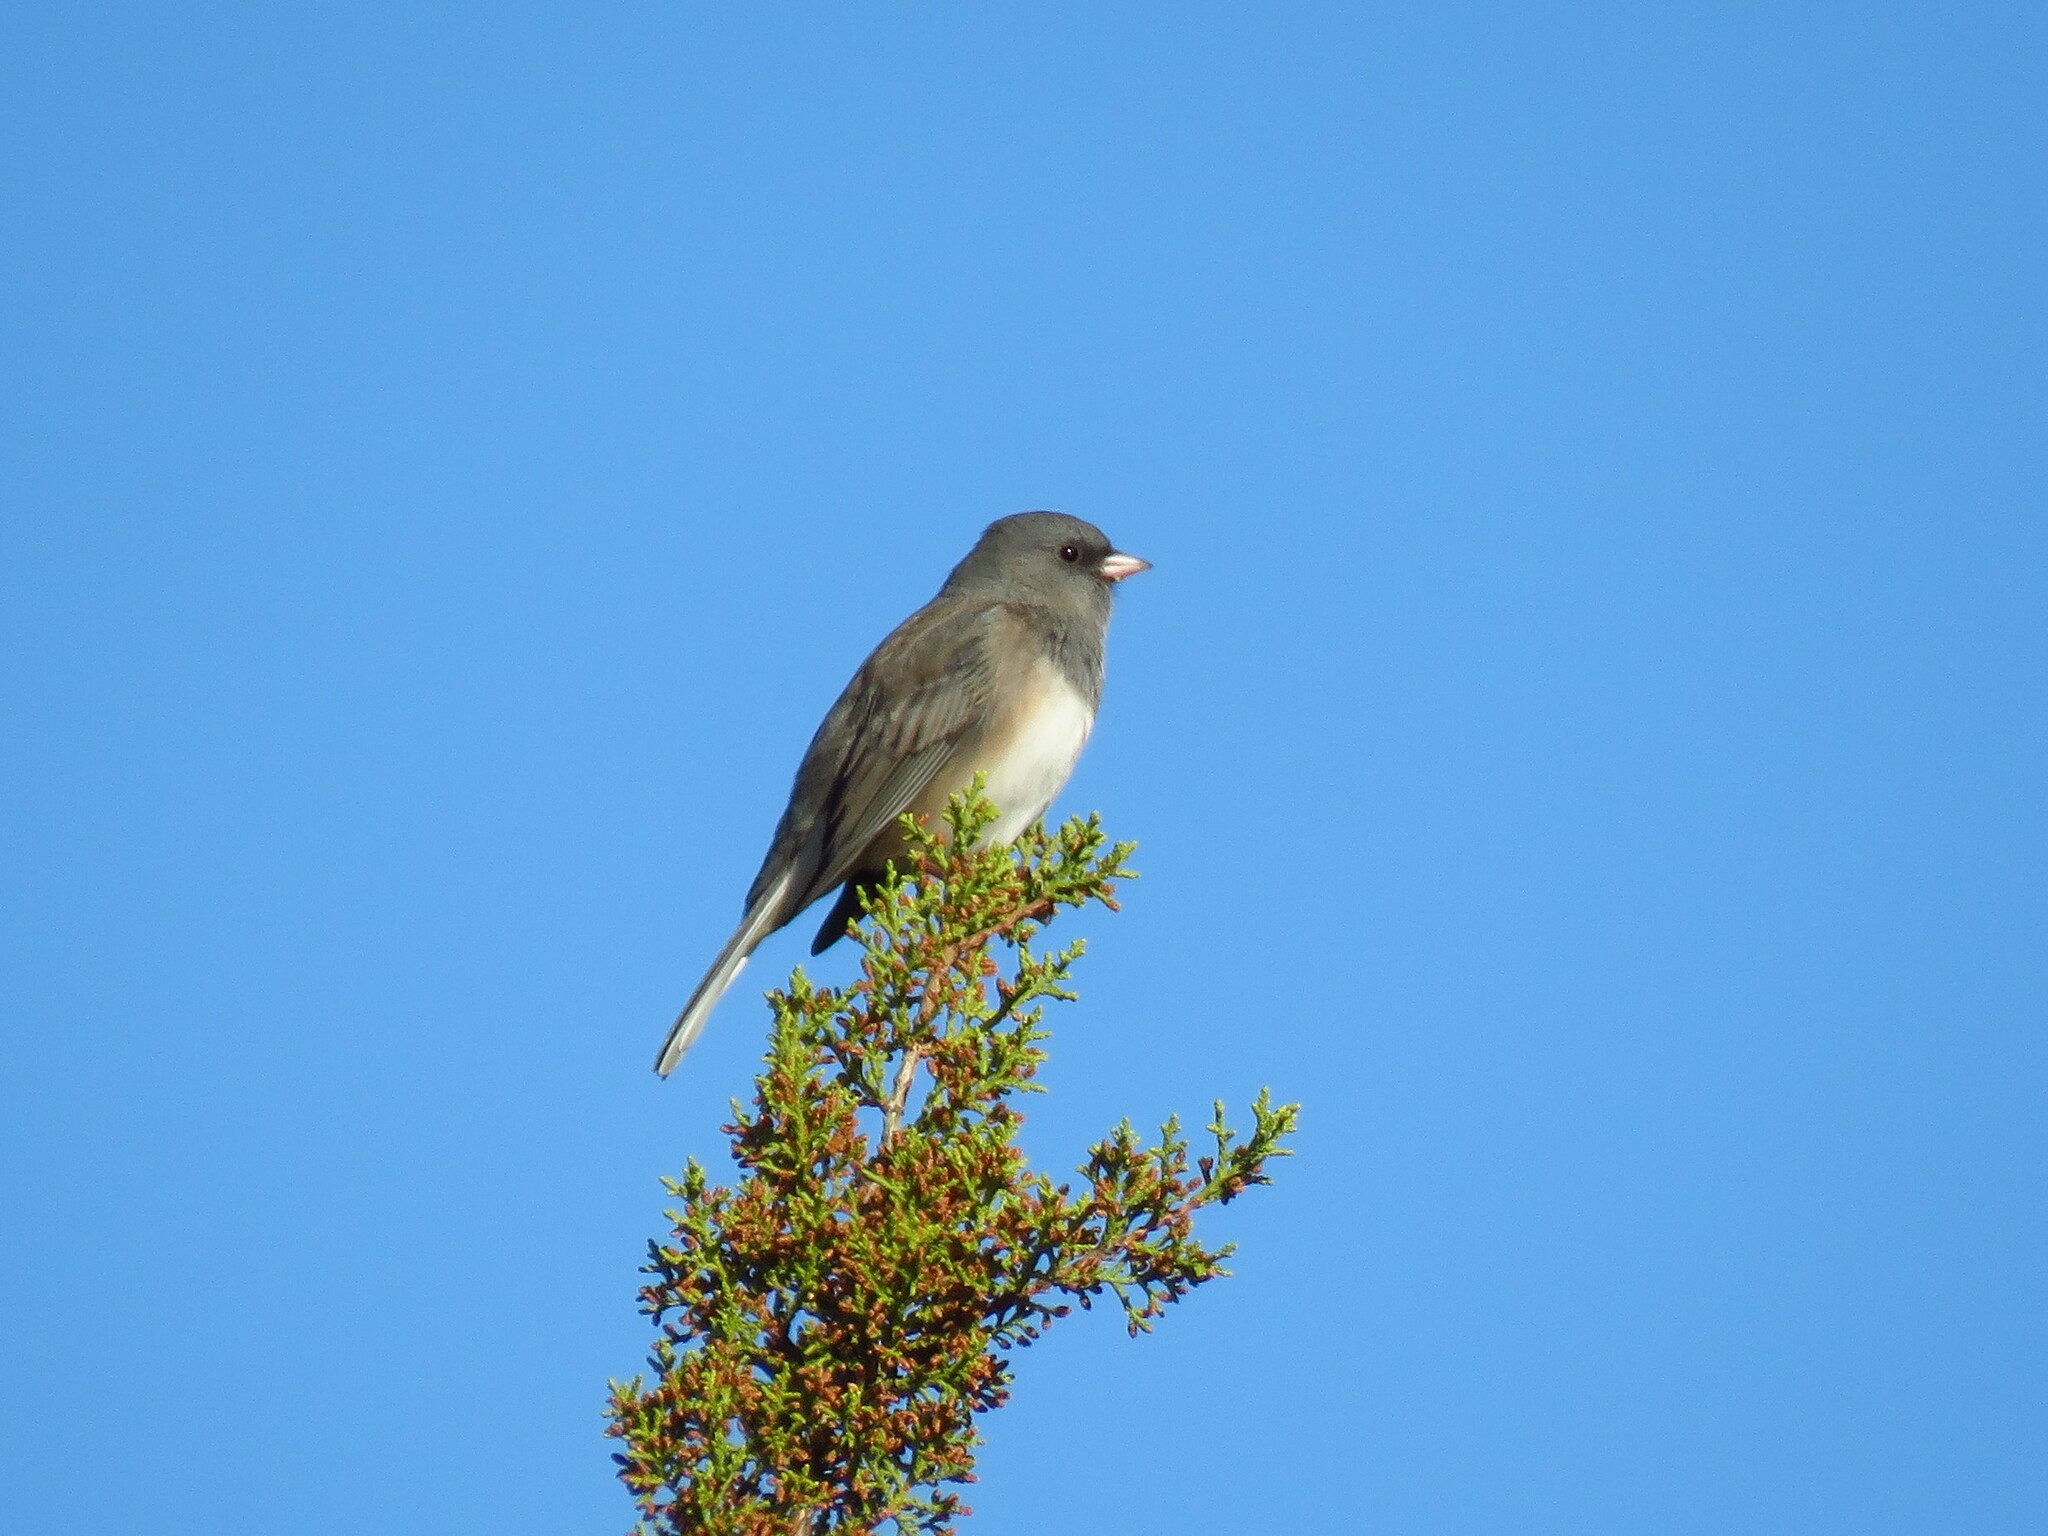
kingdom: Animalia
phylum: Chordata
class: Aves
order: Passeriformes
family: Passerellidae
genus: Junco
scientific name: Junco hyemalis
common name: Dark-eyed junco
